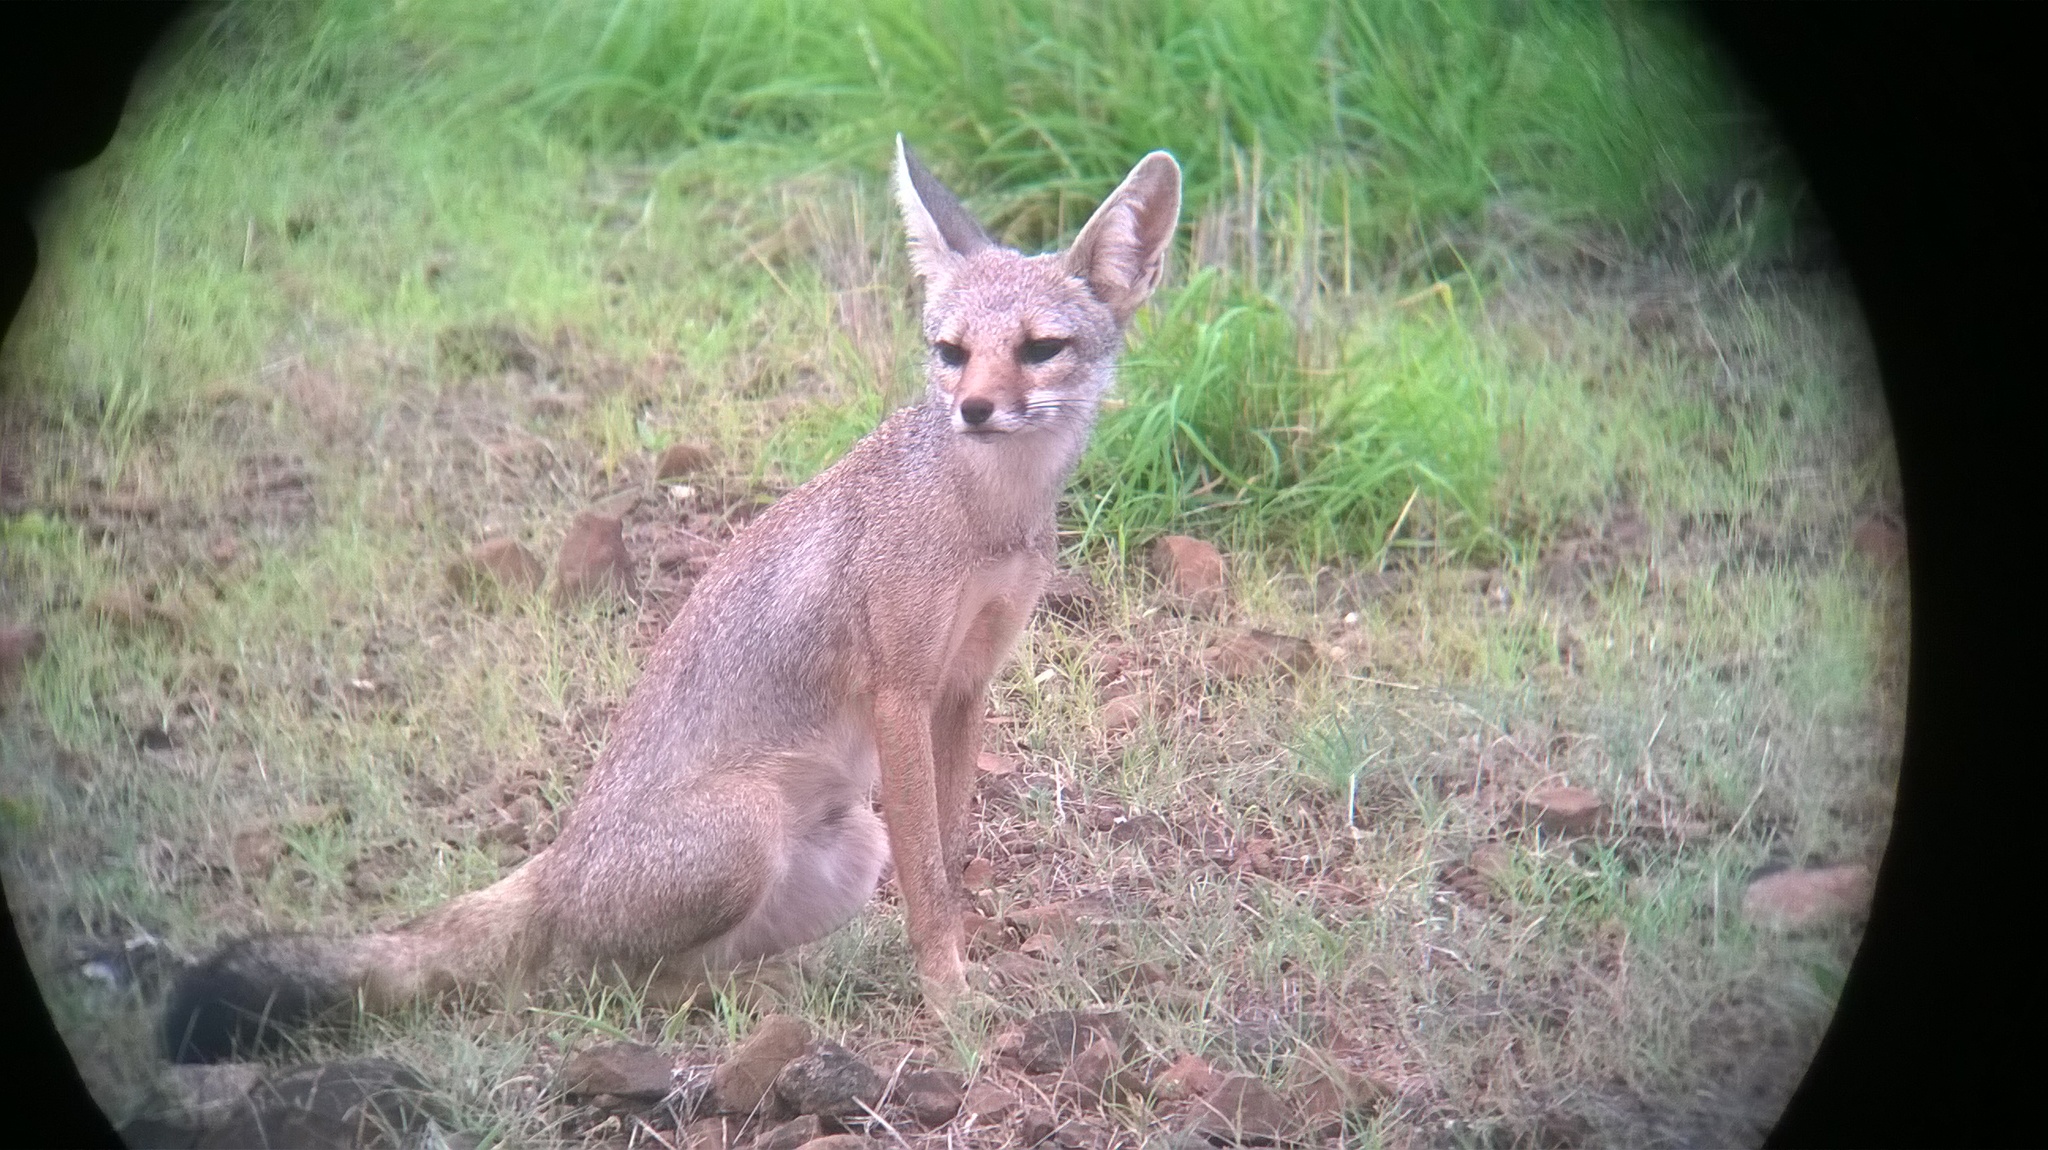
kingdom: Animalia
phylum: Chordata
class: Mammalia
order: Carnivora
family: Canidae
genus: Vulpes
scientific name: Vulpes bengalensis
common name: Bengal fox
